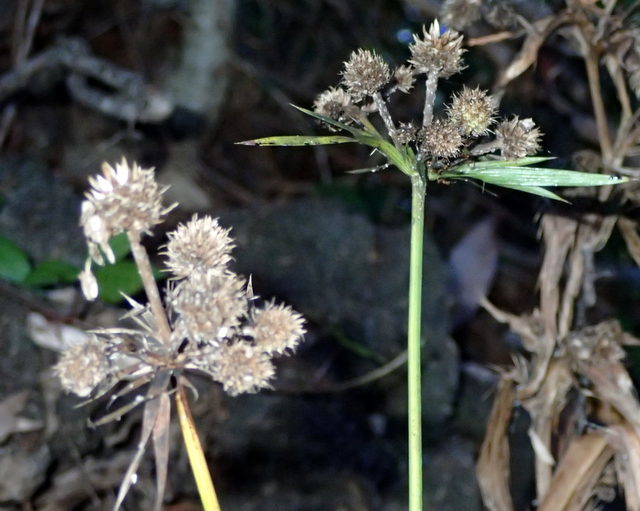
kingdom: Plantae
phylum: Tracheophyta
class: Magnoliopsida
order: Apiales
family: Apiaceae
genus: Eryngium
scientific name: Eryngium yuccifolium
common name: Button eryngo
